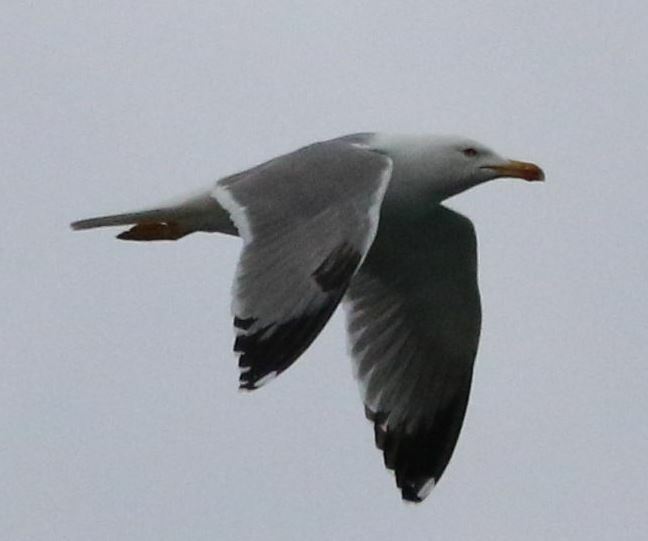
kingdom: Animalia
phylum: Chordata
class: Aves
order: Charadriiformes
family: Laridae
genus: Larus
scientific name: Larus michahellis
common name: Yellow-legged gull
